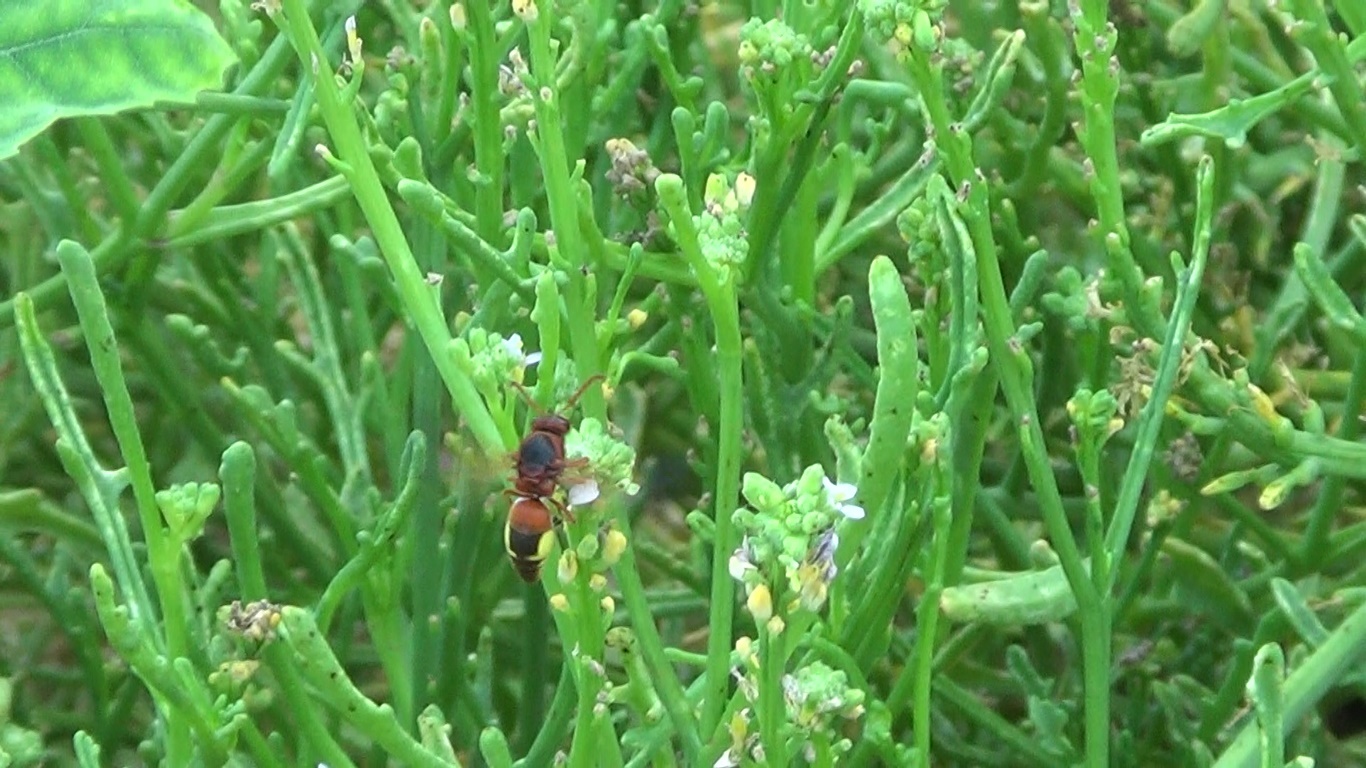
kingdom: Animalia
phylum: Arthropoda
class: Insecta
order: Hymenoptera
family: Eumenidae
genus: Rhynchium
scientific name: Rhynchium oculatum
